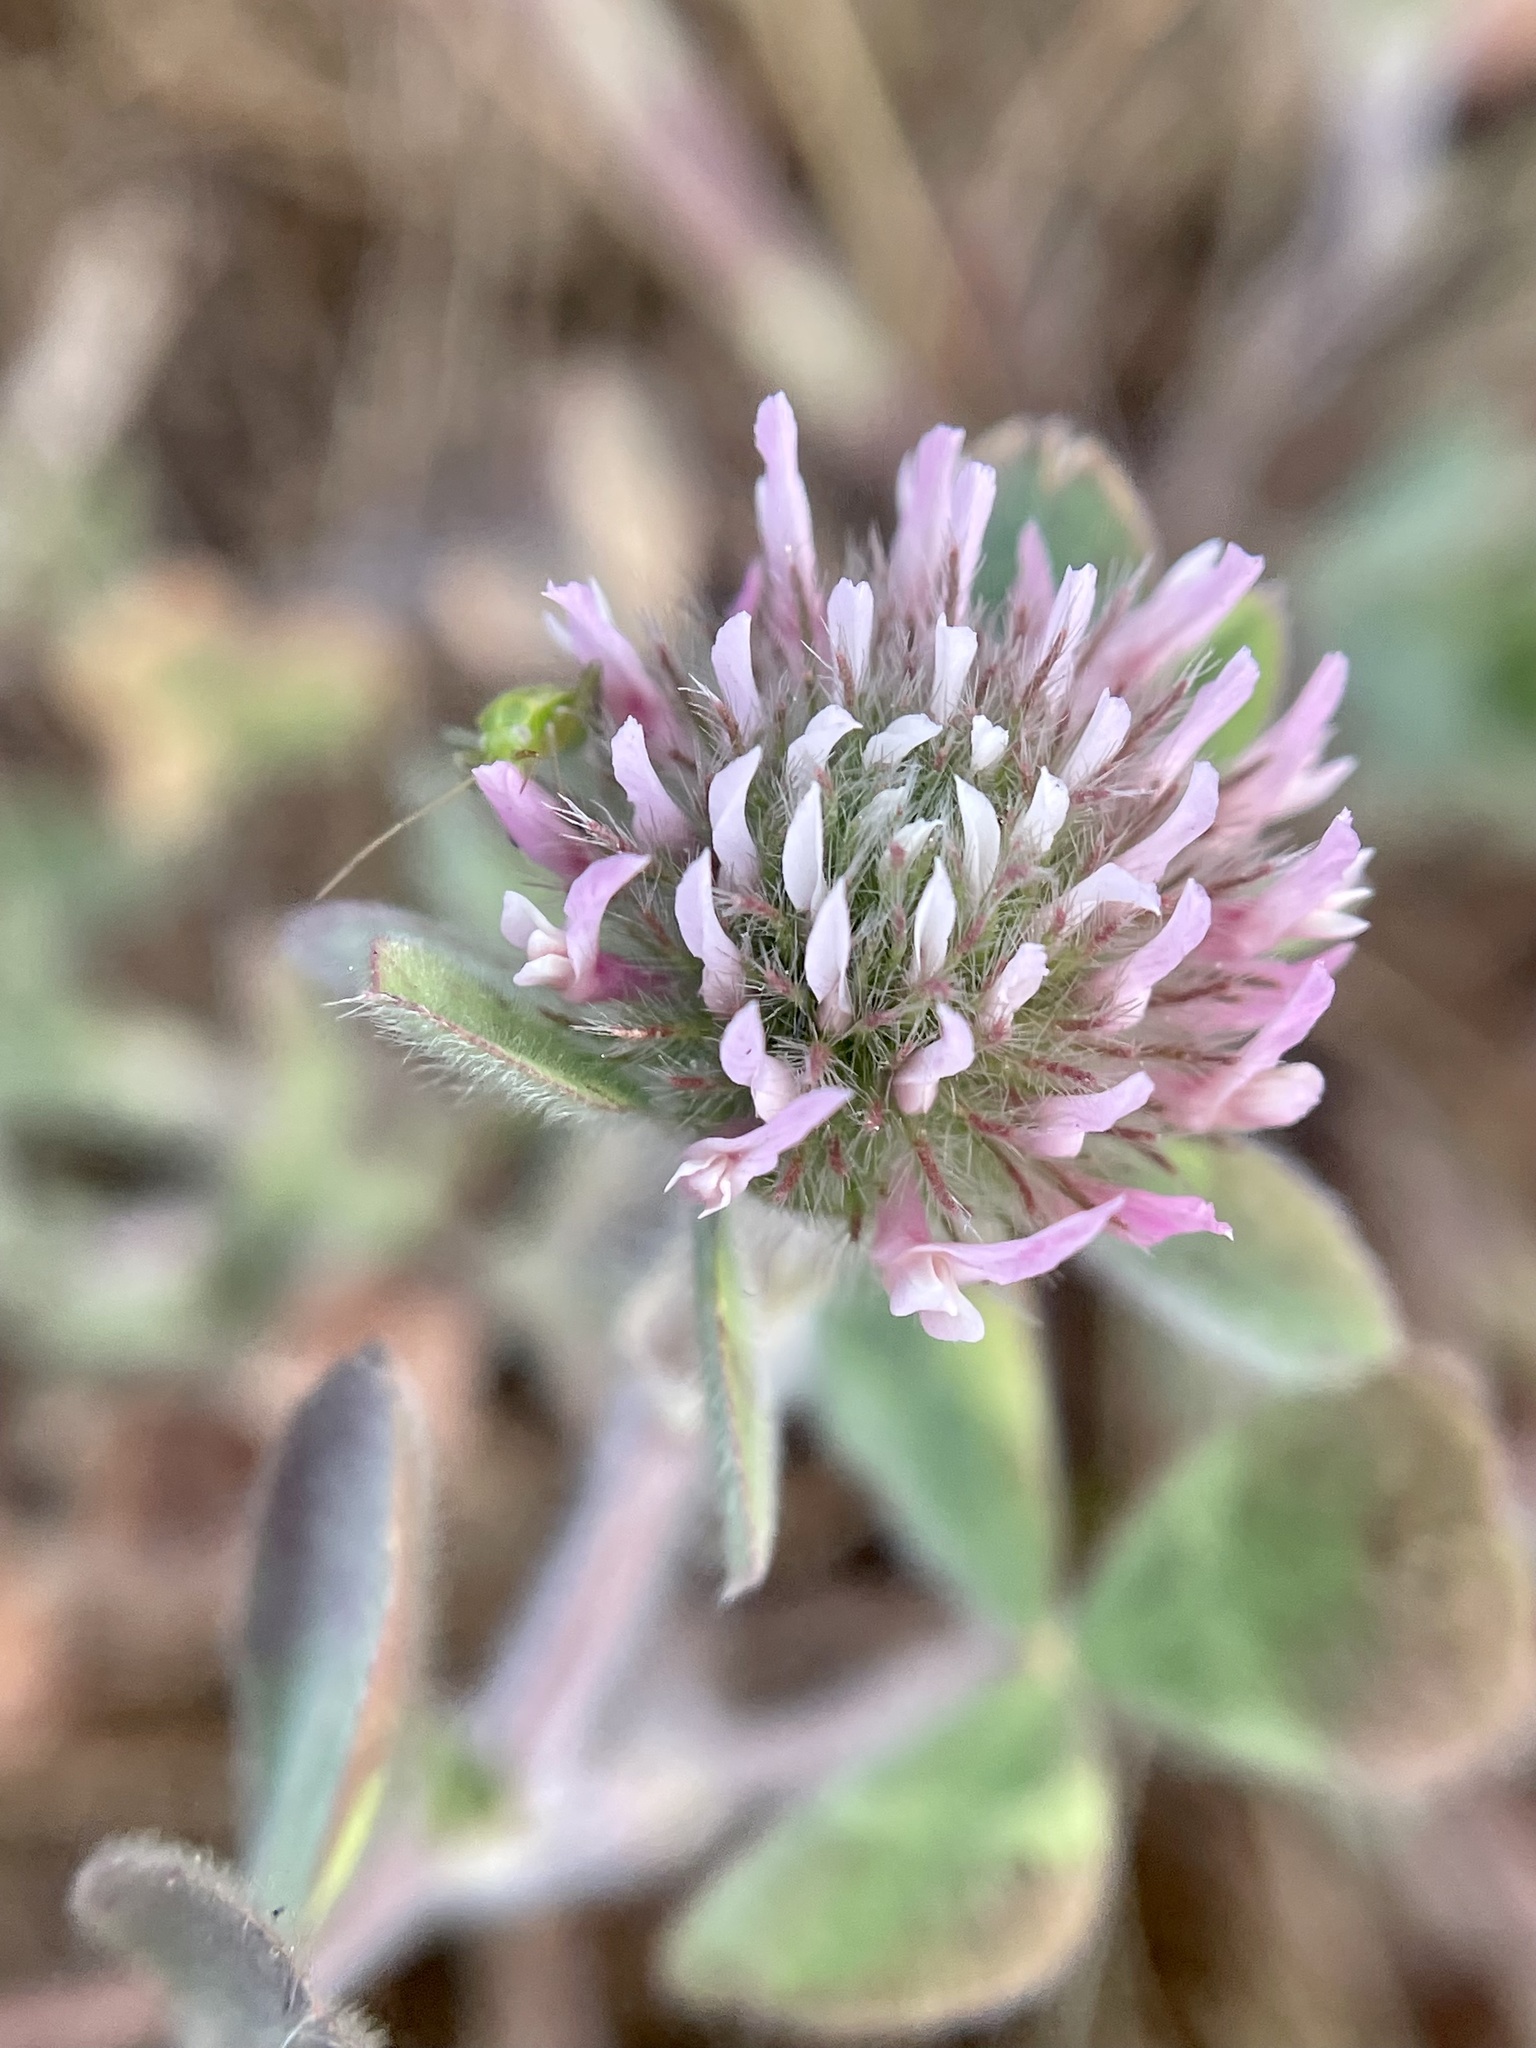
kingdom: Plantae
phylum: Tracheophyta
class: Magnoliopsida
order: Fabales
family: Fabaceae
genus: Trifolium
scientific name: Trifolium hirtum
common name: Rose clover
